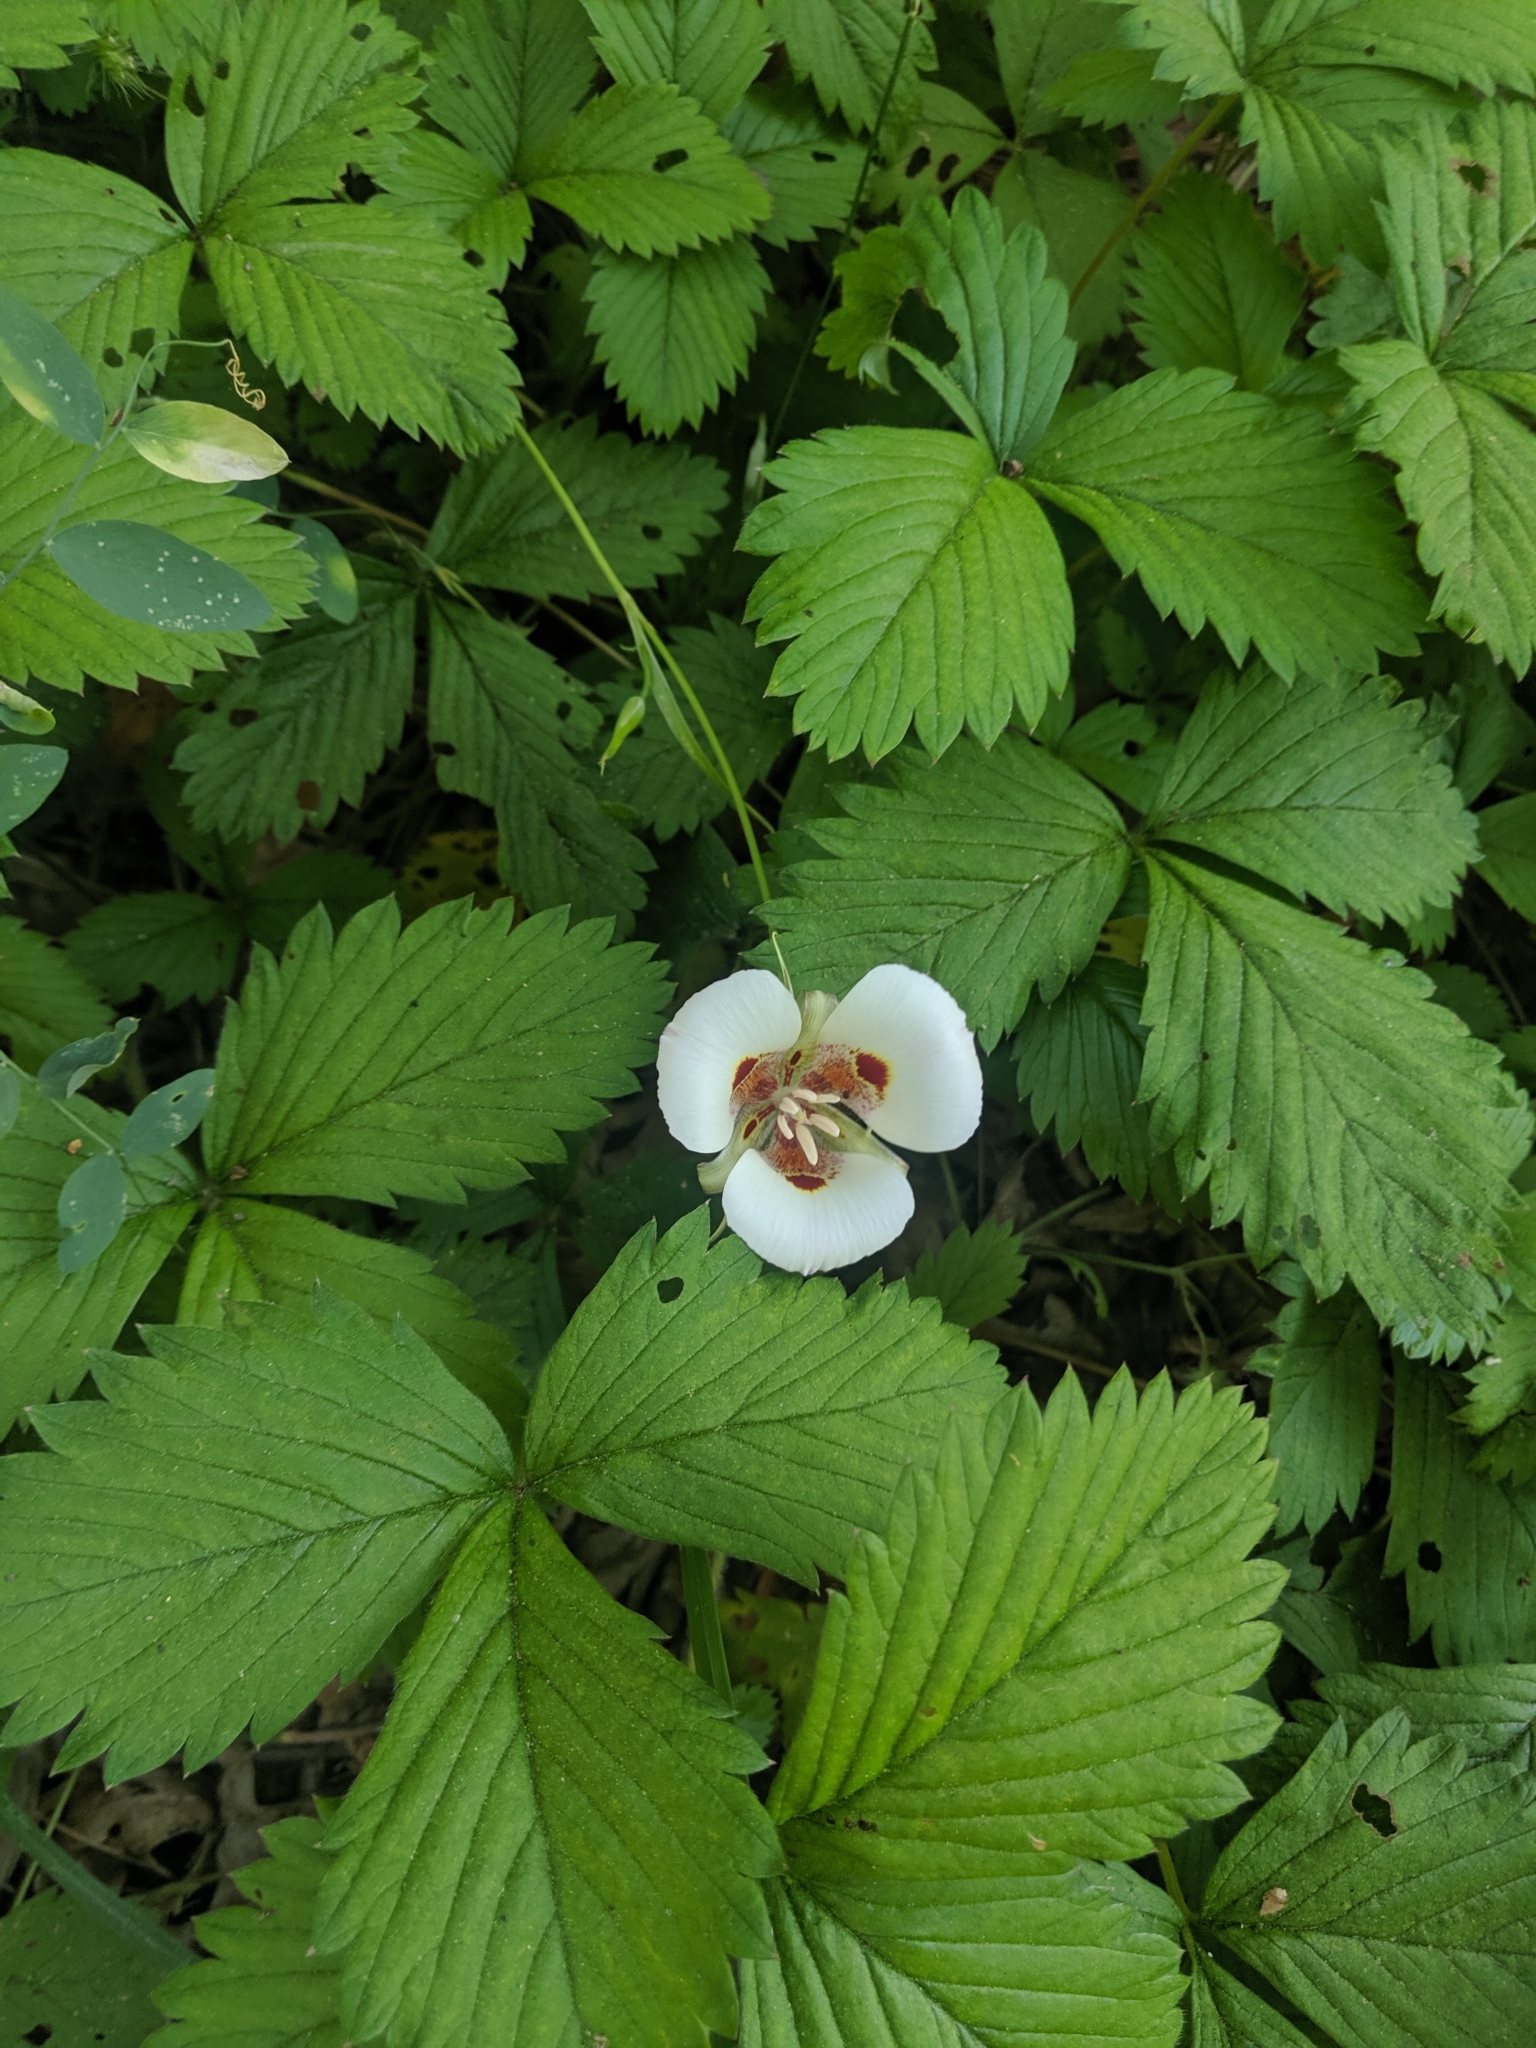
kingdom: Plantae
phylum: Tracheophyta
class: Liliopsida
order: Liliales
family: Liliaceae
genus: Calochortus
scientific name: Calochortus venustus
